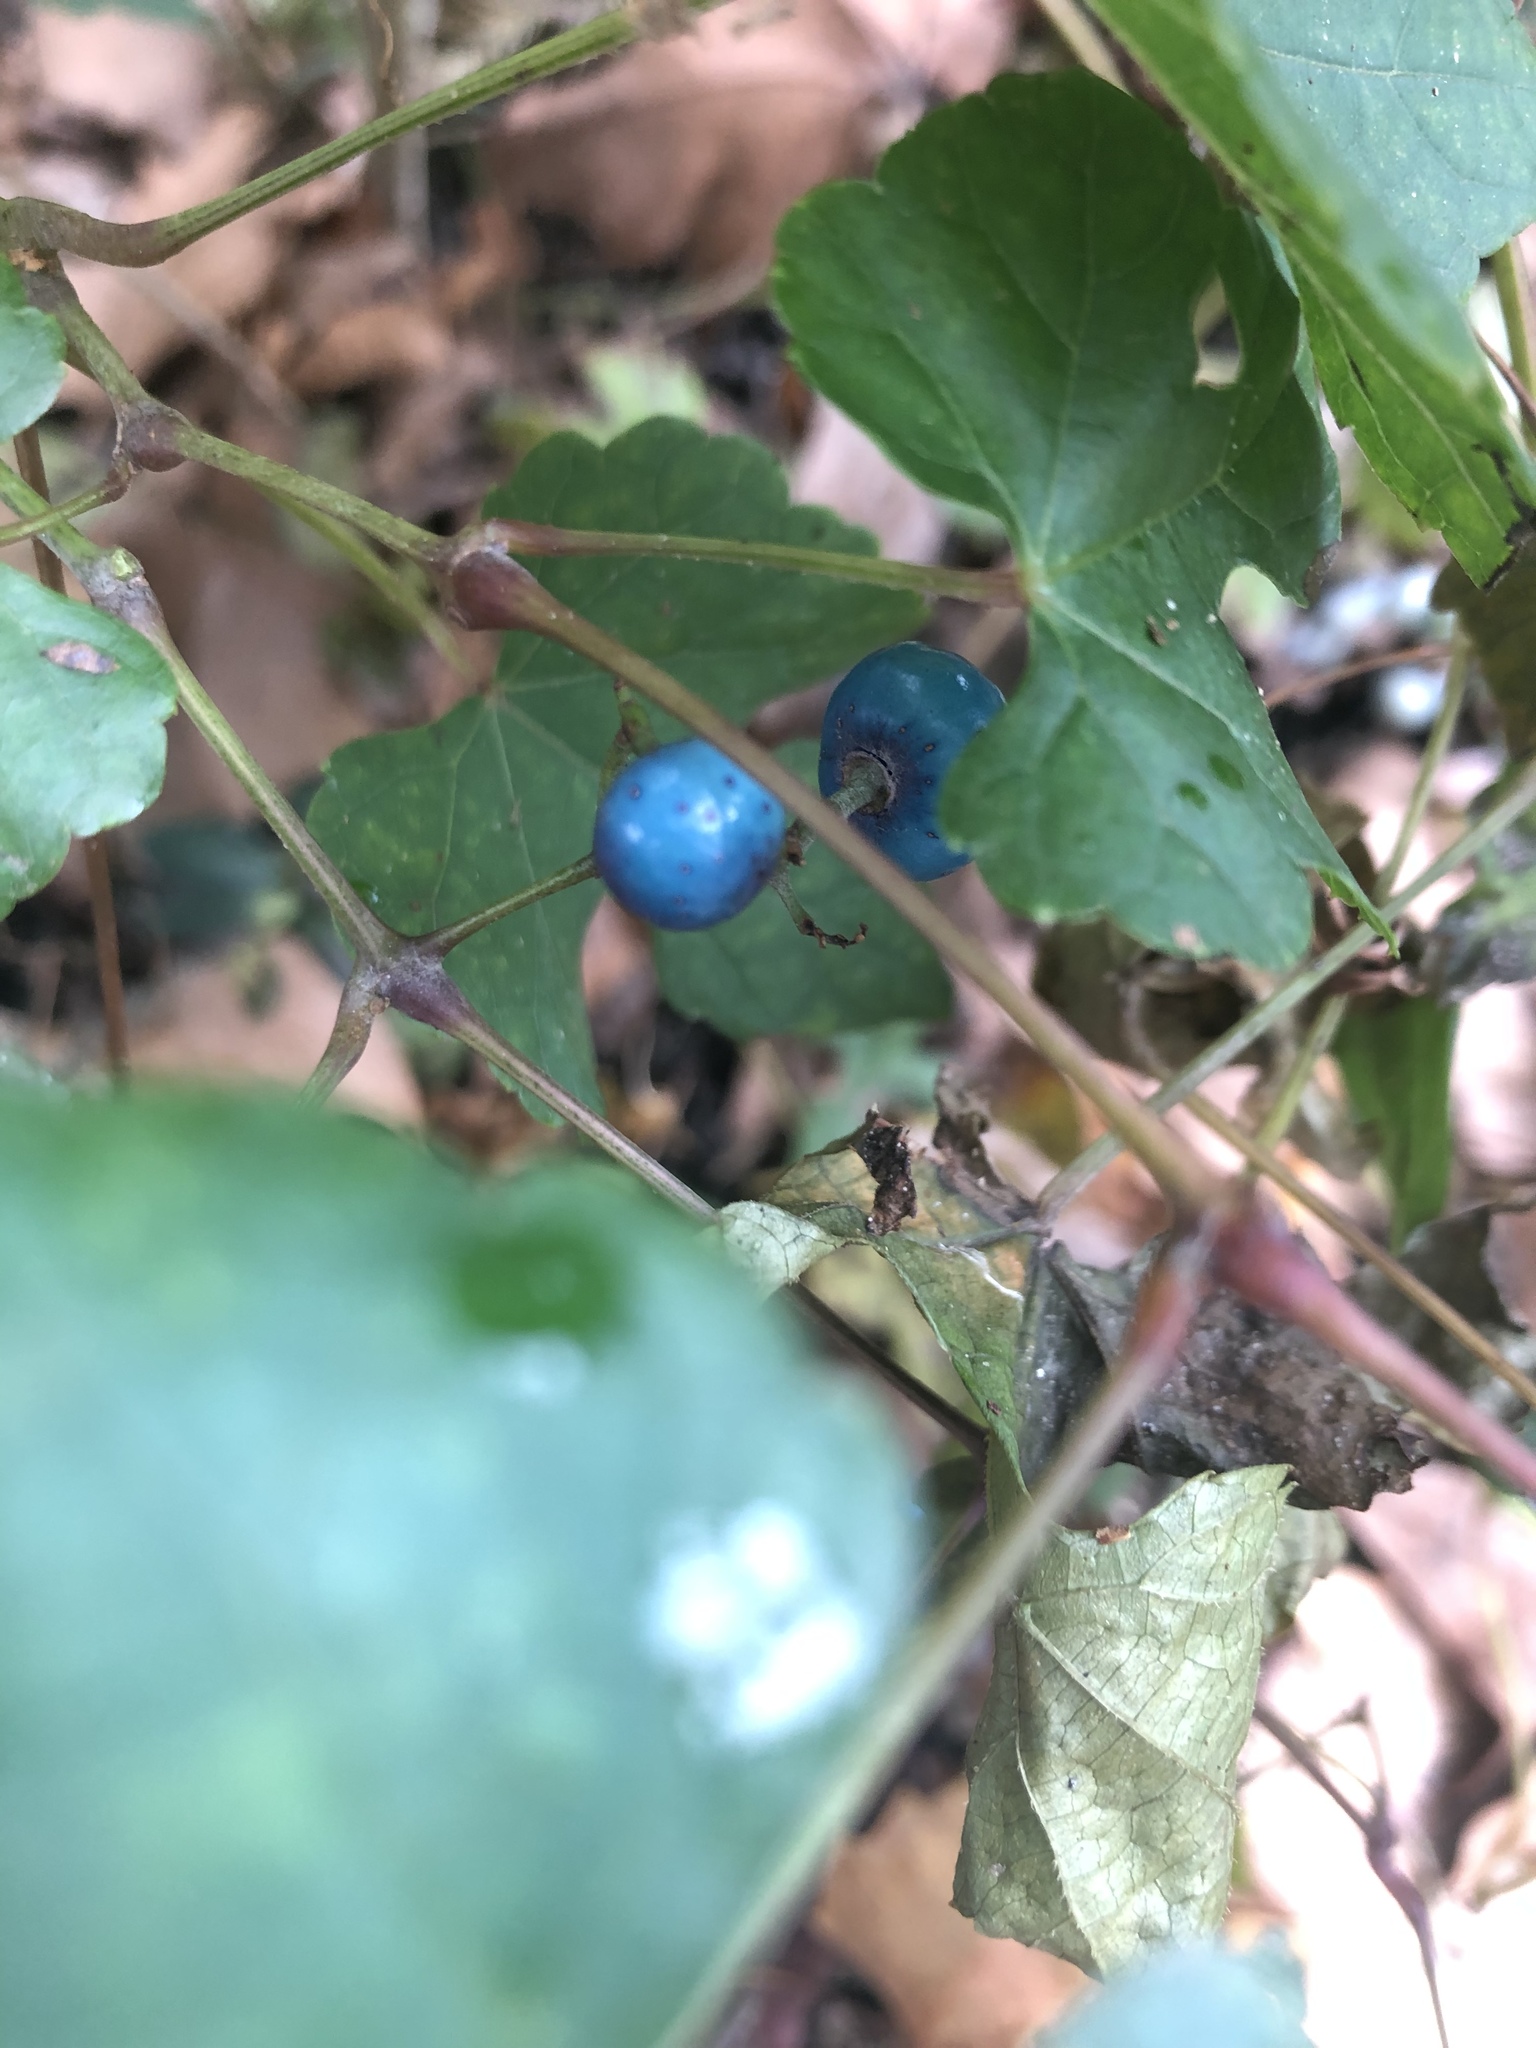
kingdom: Plantae
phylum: Tracheophyta
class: Magnoliopsida
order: Vitales
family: Vitaceae
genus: Ampelopsis
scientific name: Ampelopsis glandulosa
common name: Amur peppervine
